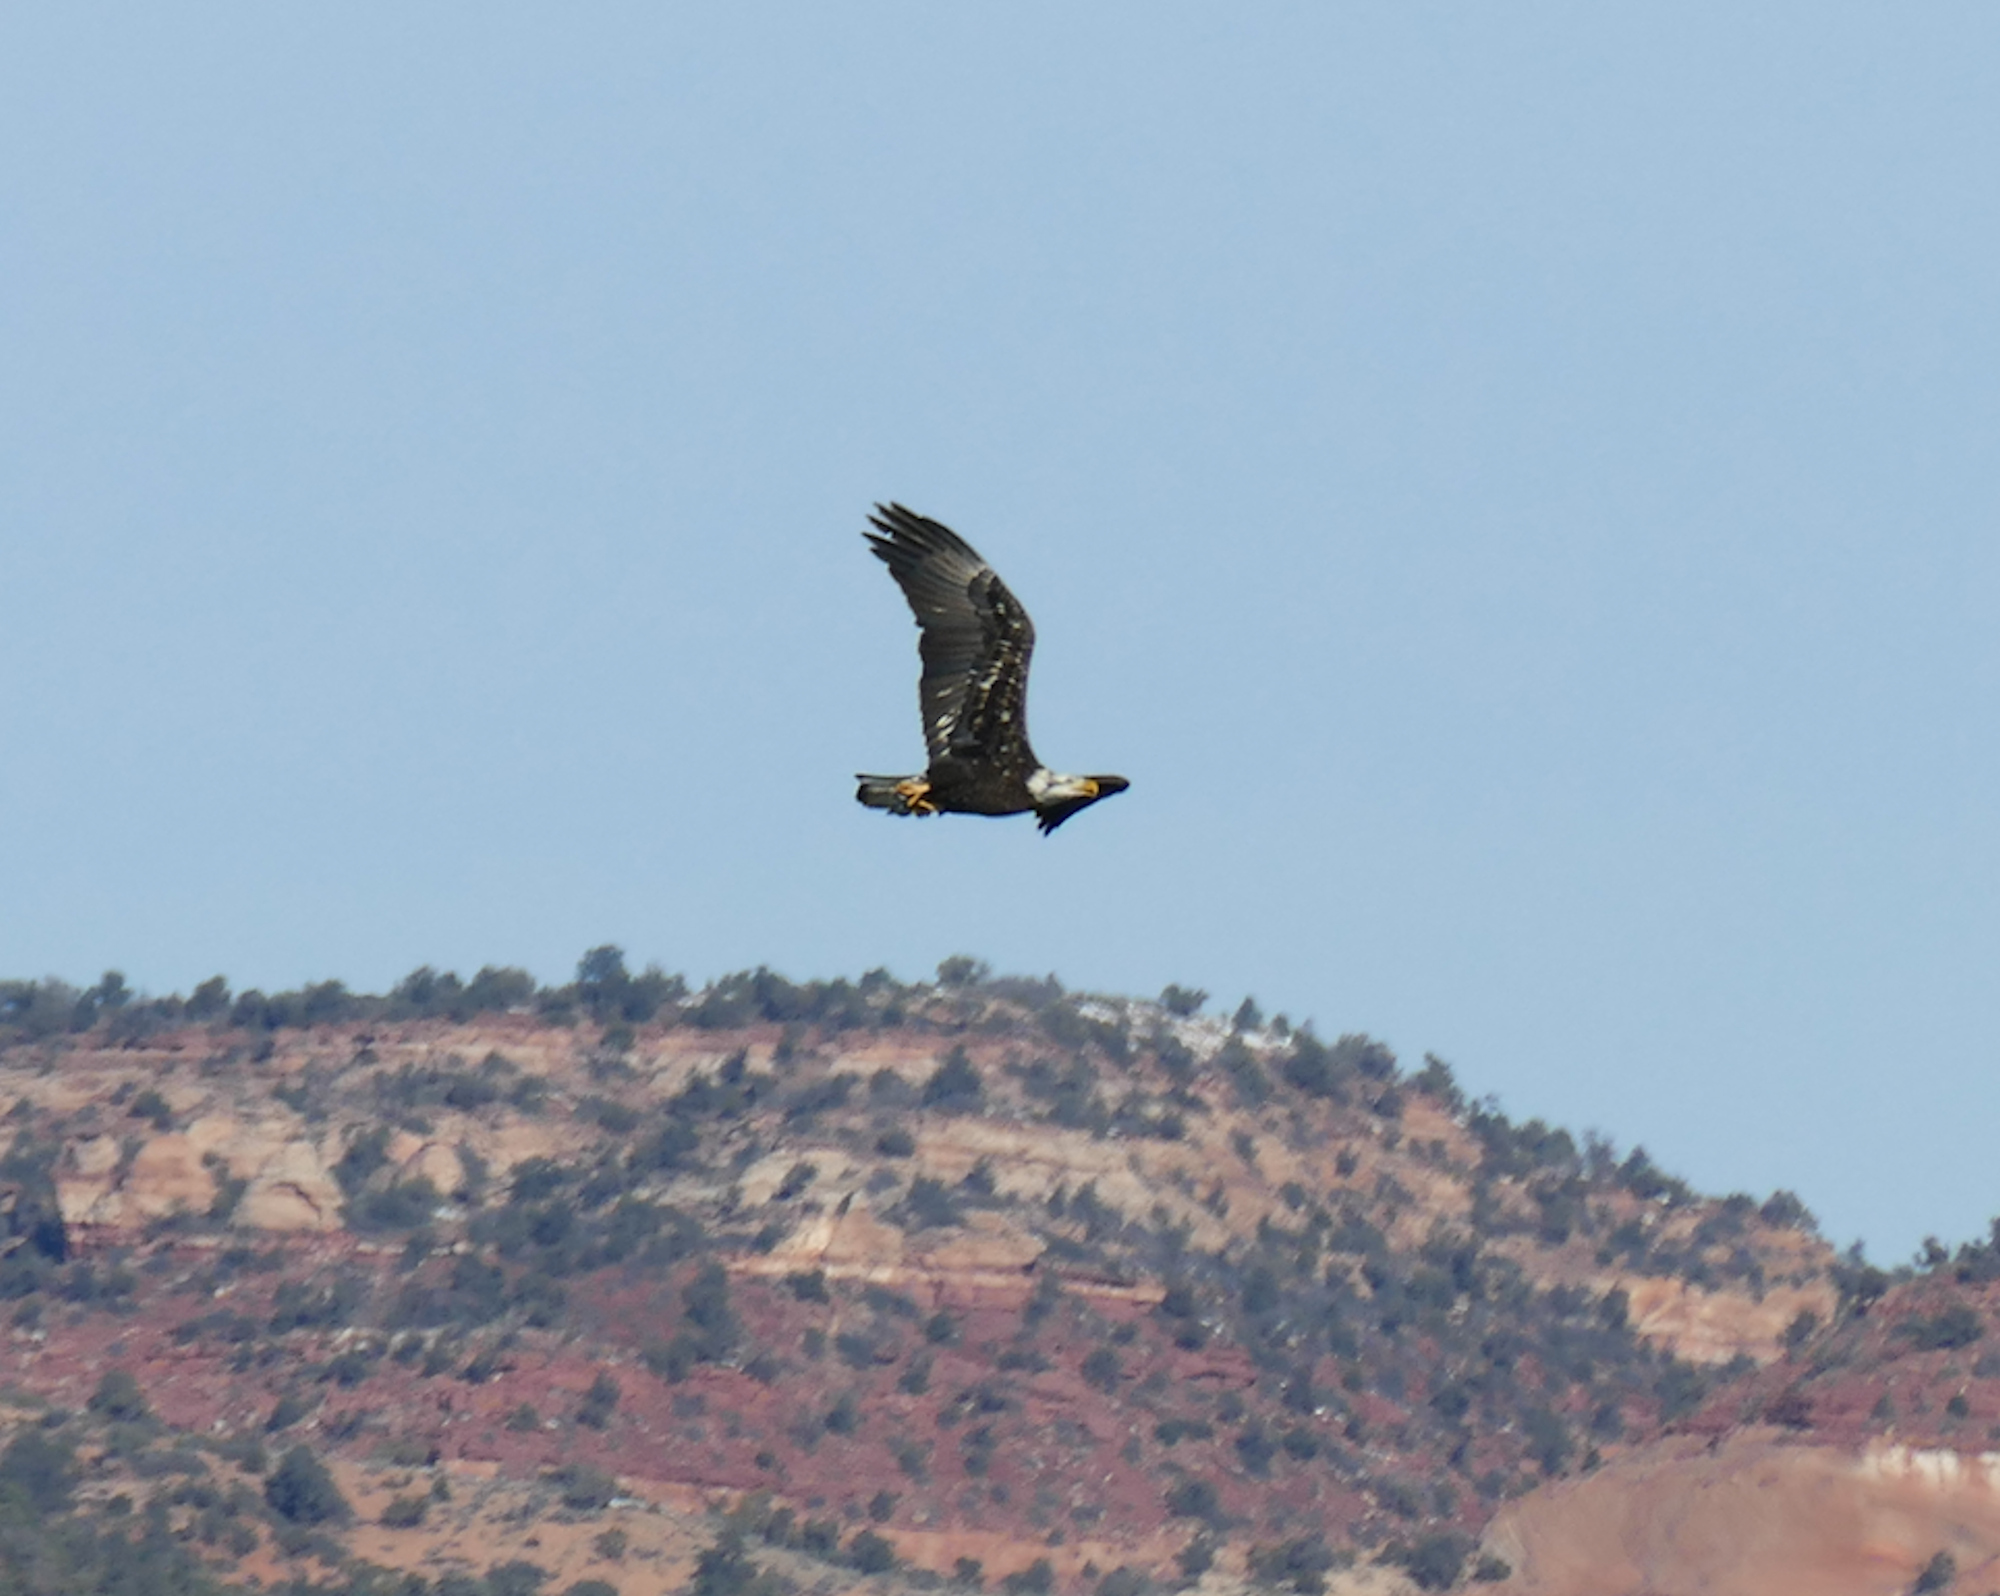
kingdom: Animalia
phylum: Chordata
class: Aves
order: Accipitriformes
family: Accipitridae
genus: Haliaeetus
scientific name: Haliaeetus leucocephalus
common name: Bald eagle
